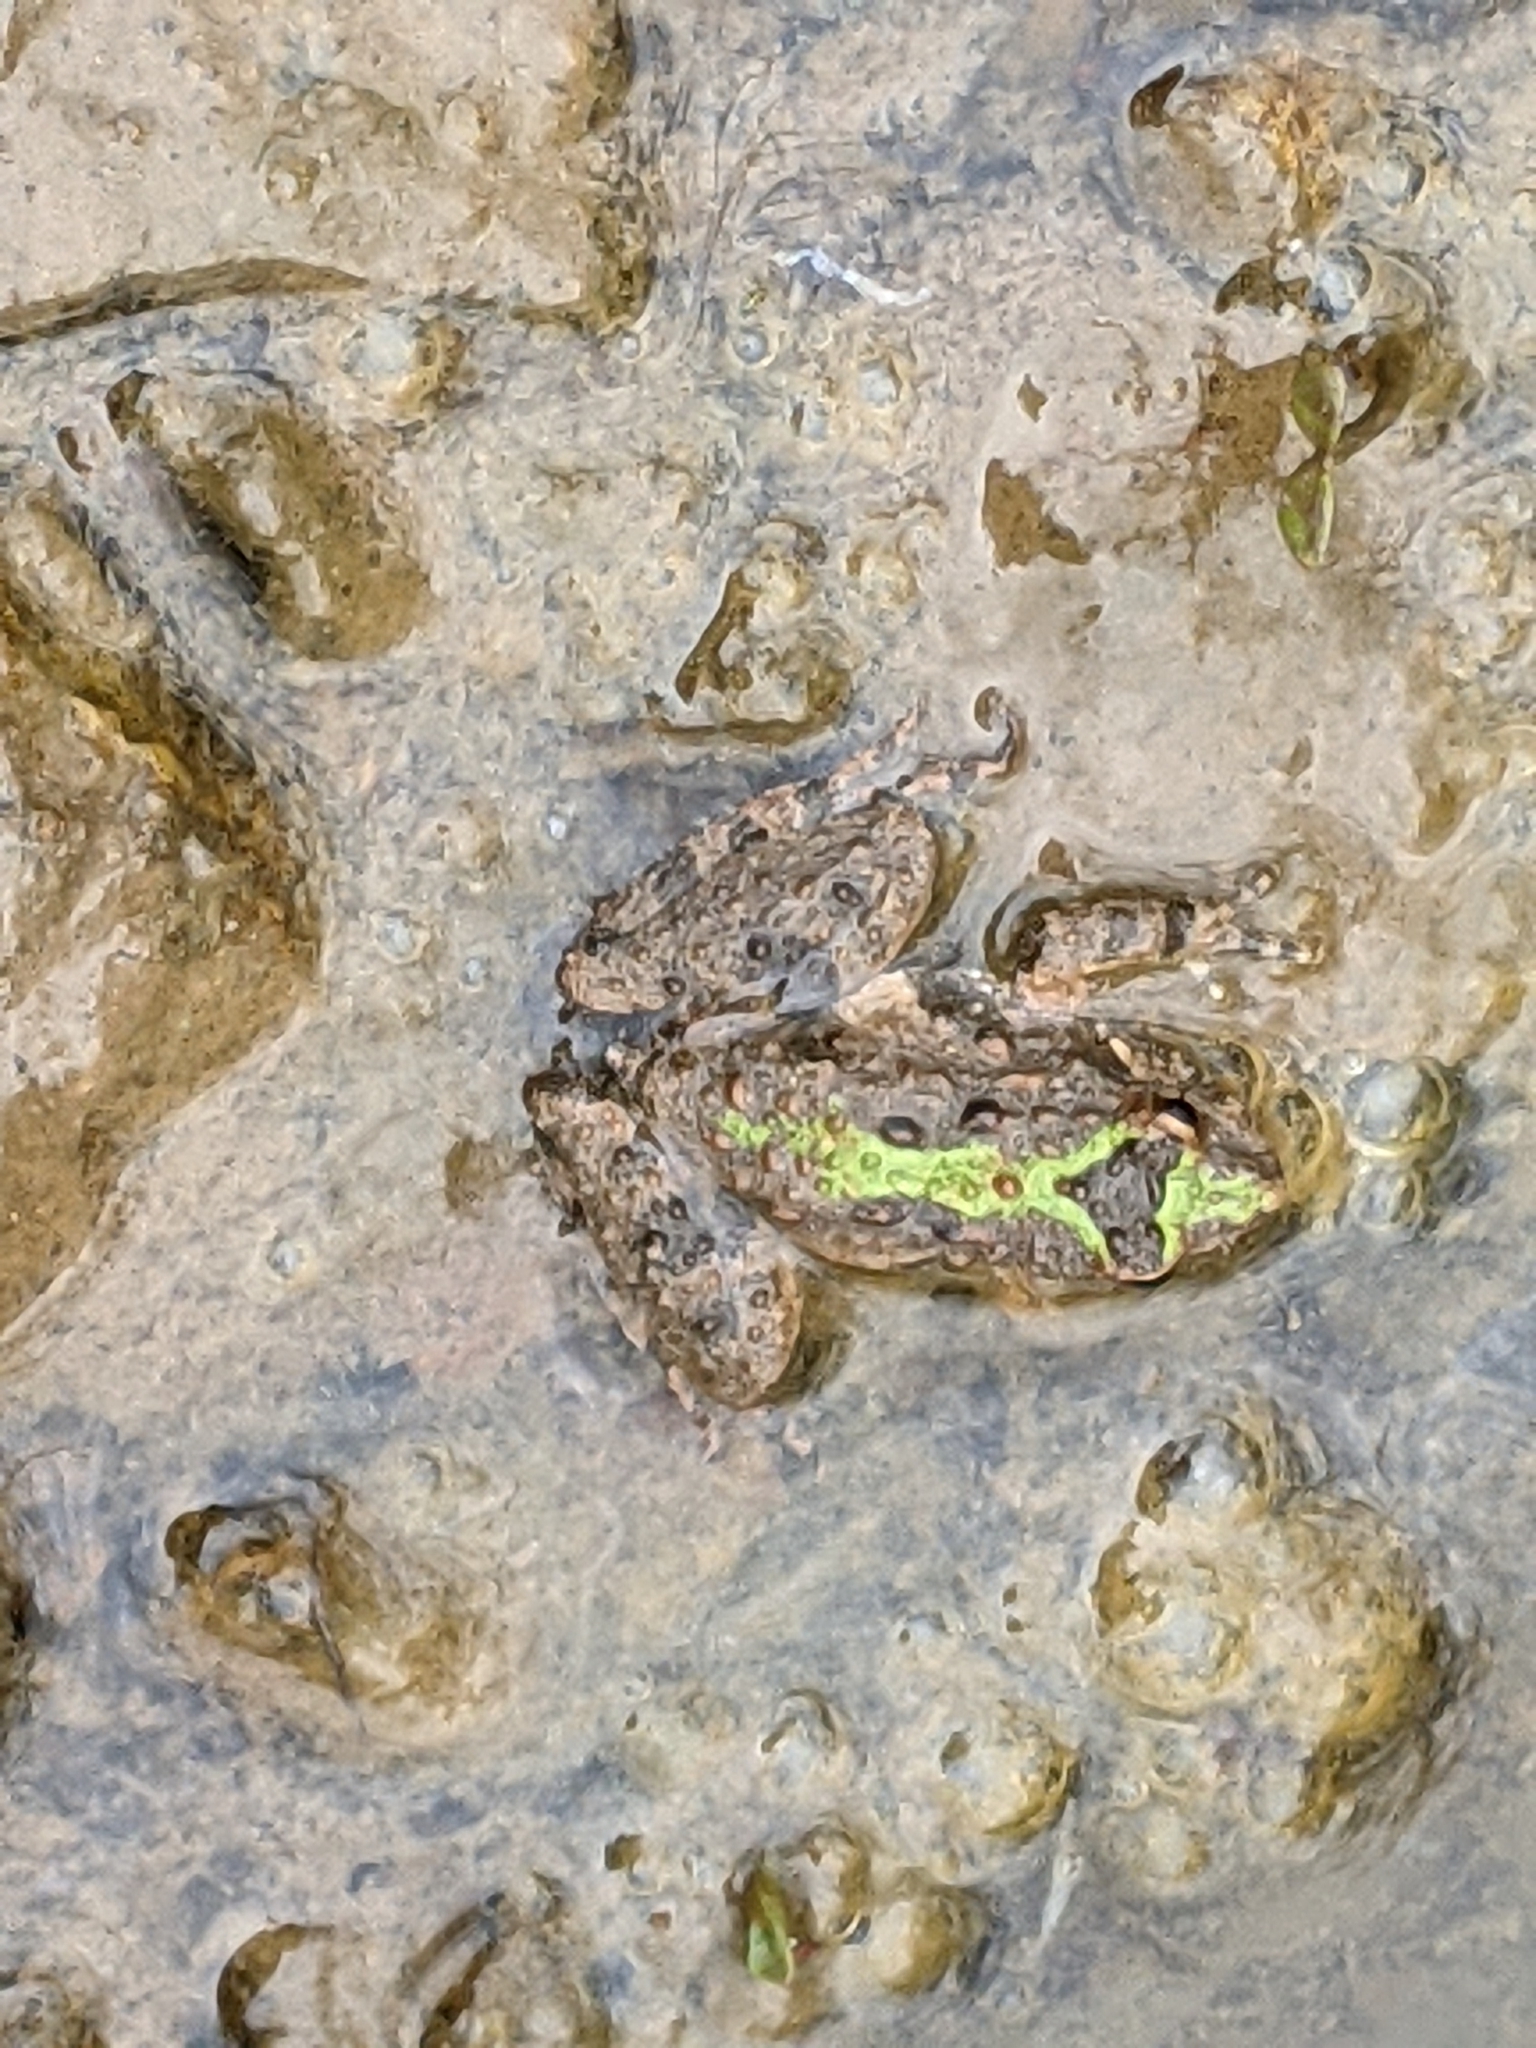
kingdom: Animalia
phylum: Chordata
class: Amphibia
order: Anura
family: Hylidae
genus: Acris
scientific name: Acris crepitans
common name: Northern cricket frog
